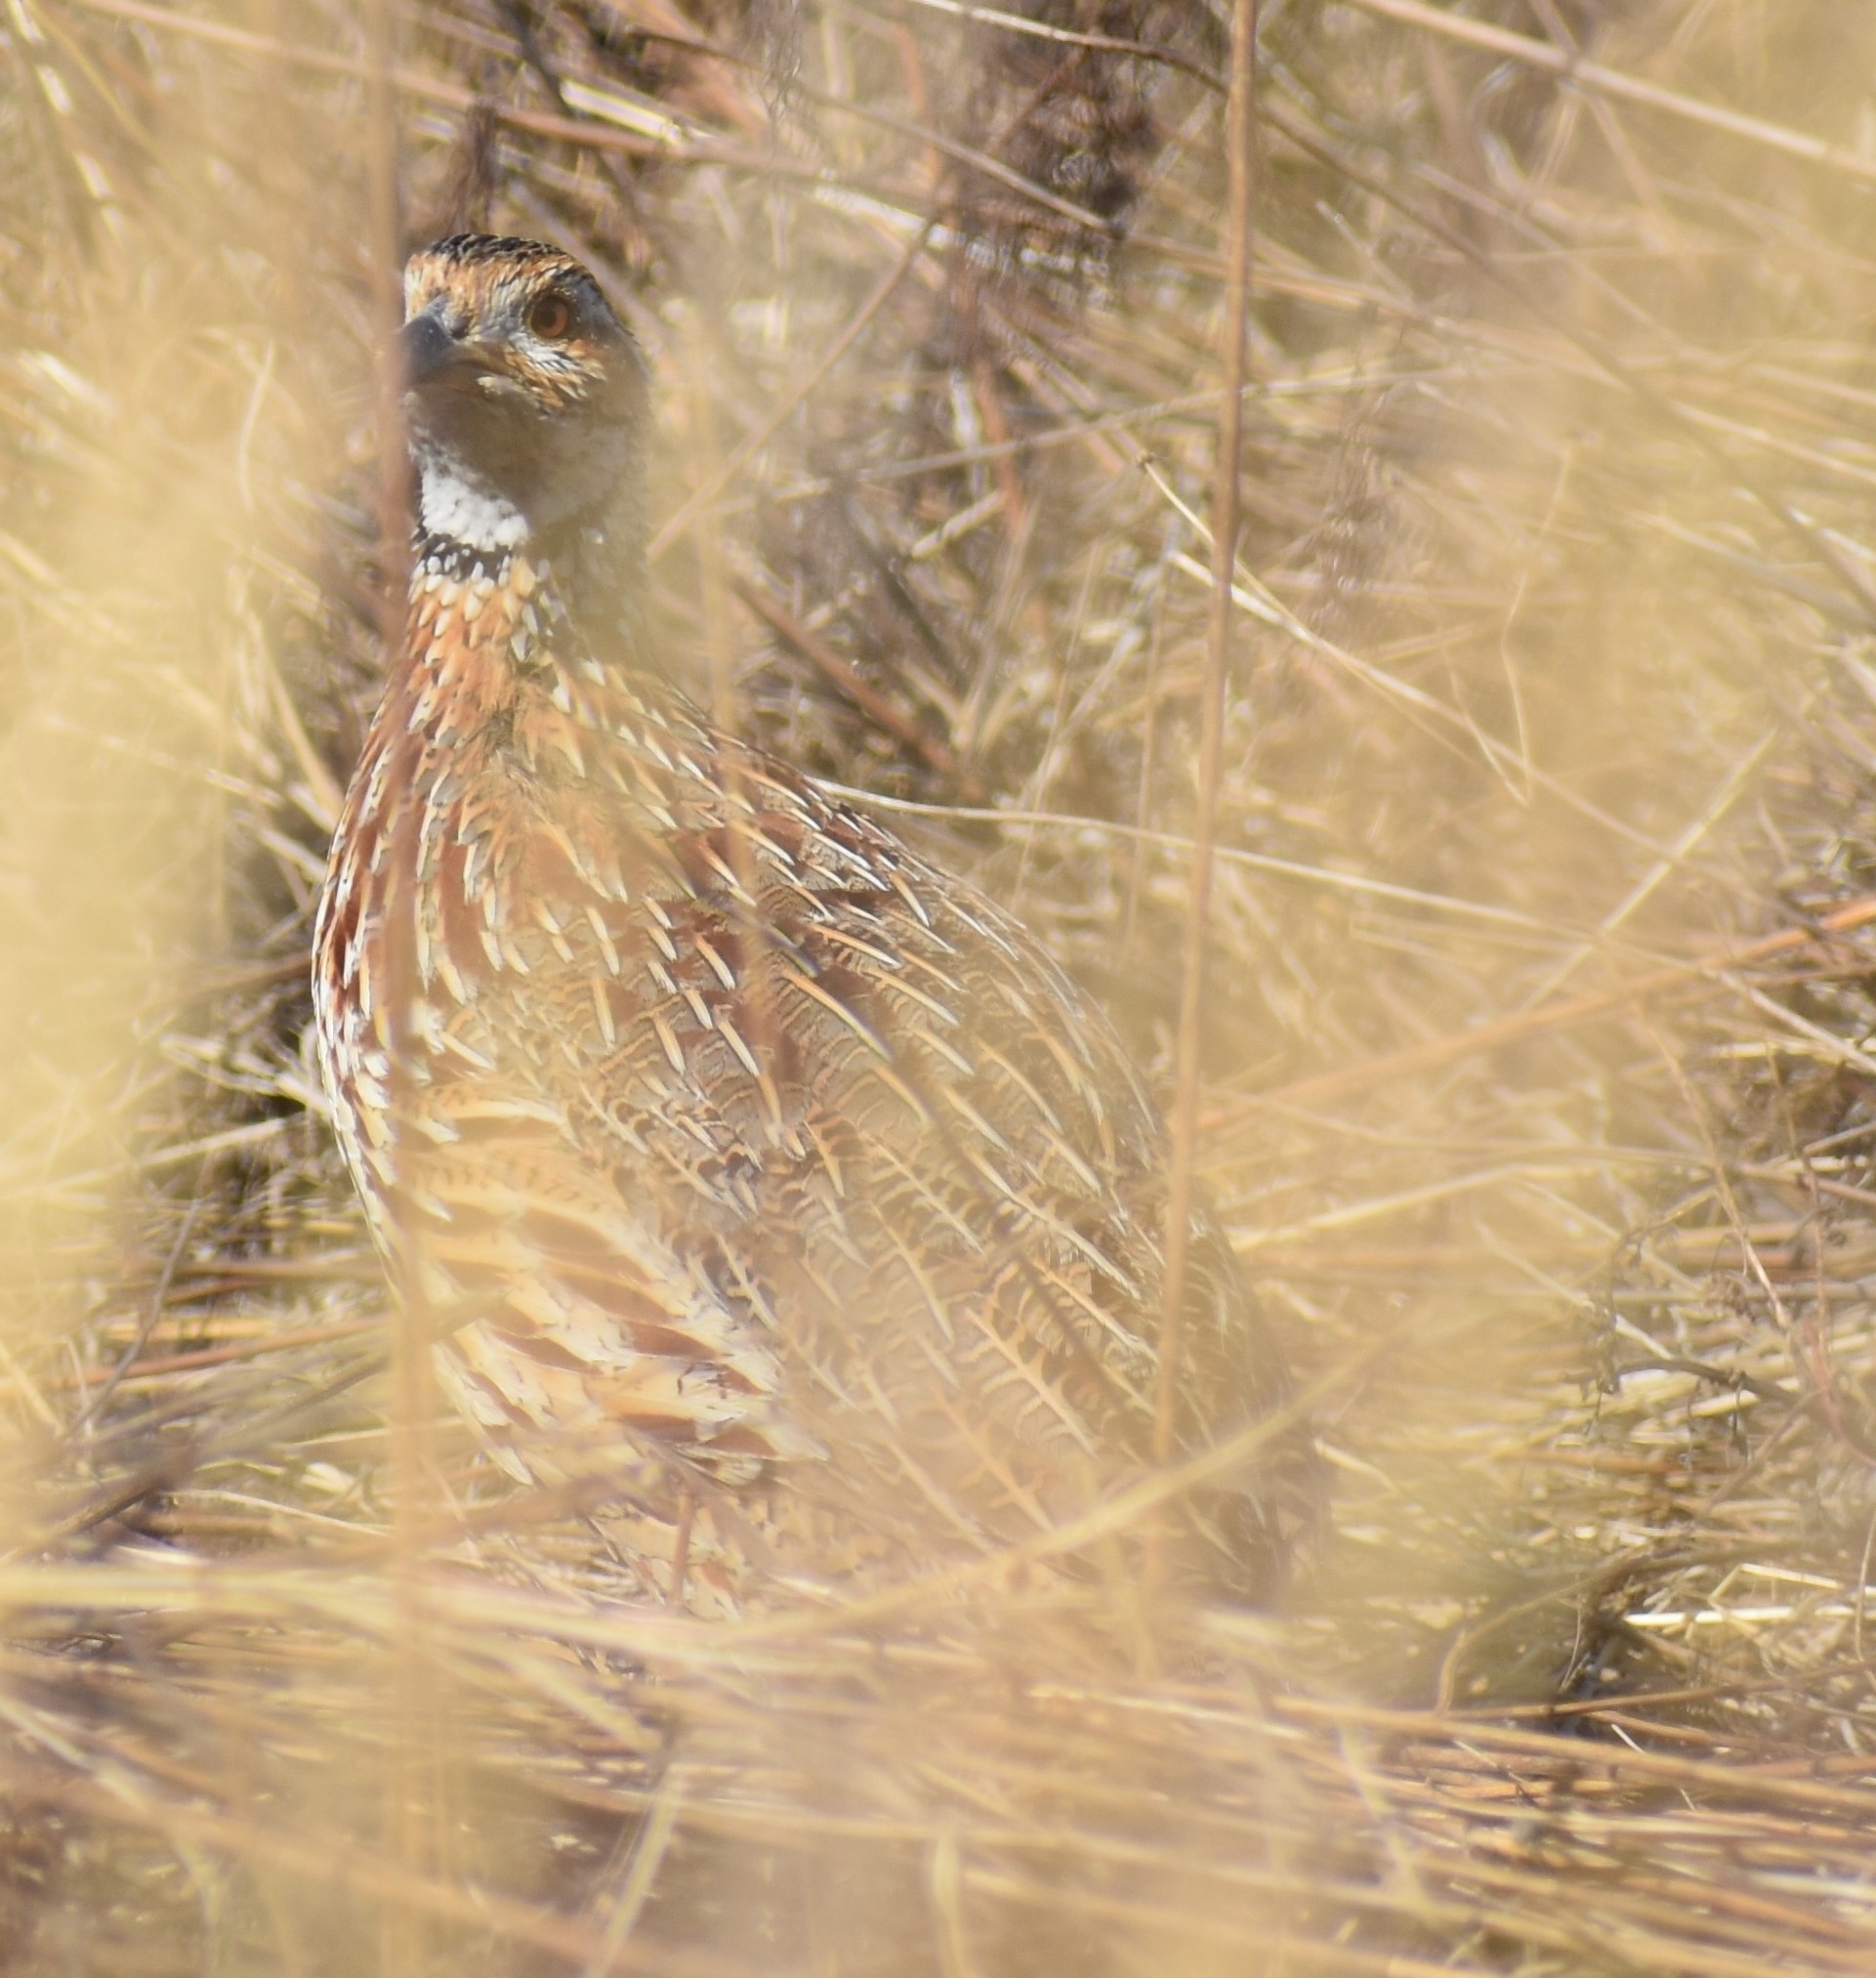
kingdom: Animalia
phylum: Chordata
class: Aves
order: Galliformes
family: Phasianidae
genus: Scleroptila
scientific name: Scleroptila gutturalis
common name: Orange river francolin
